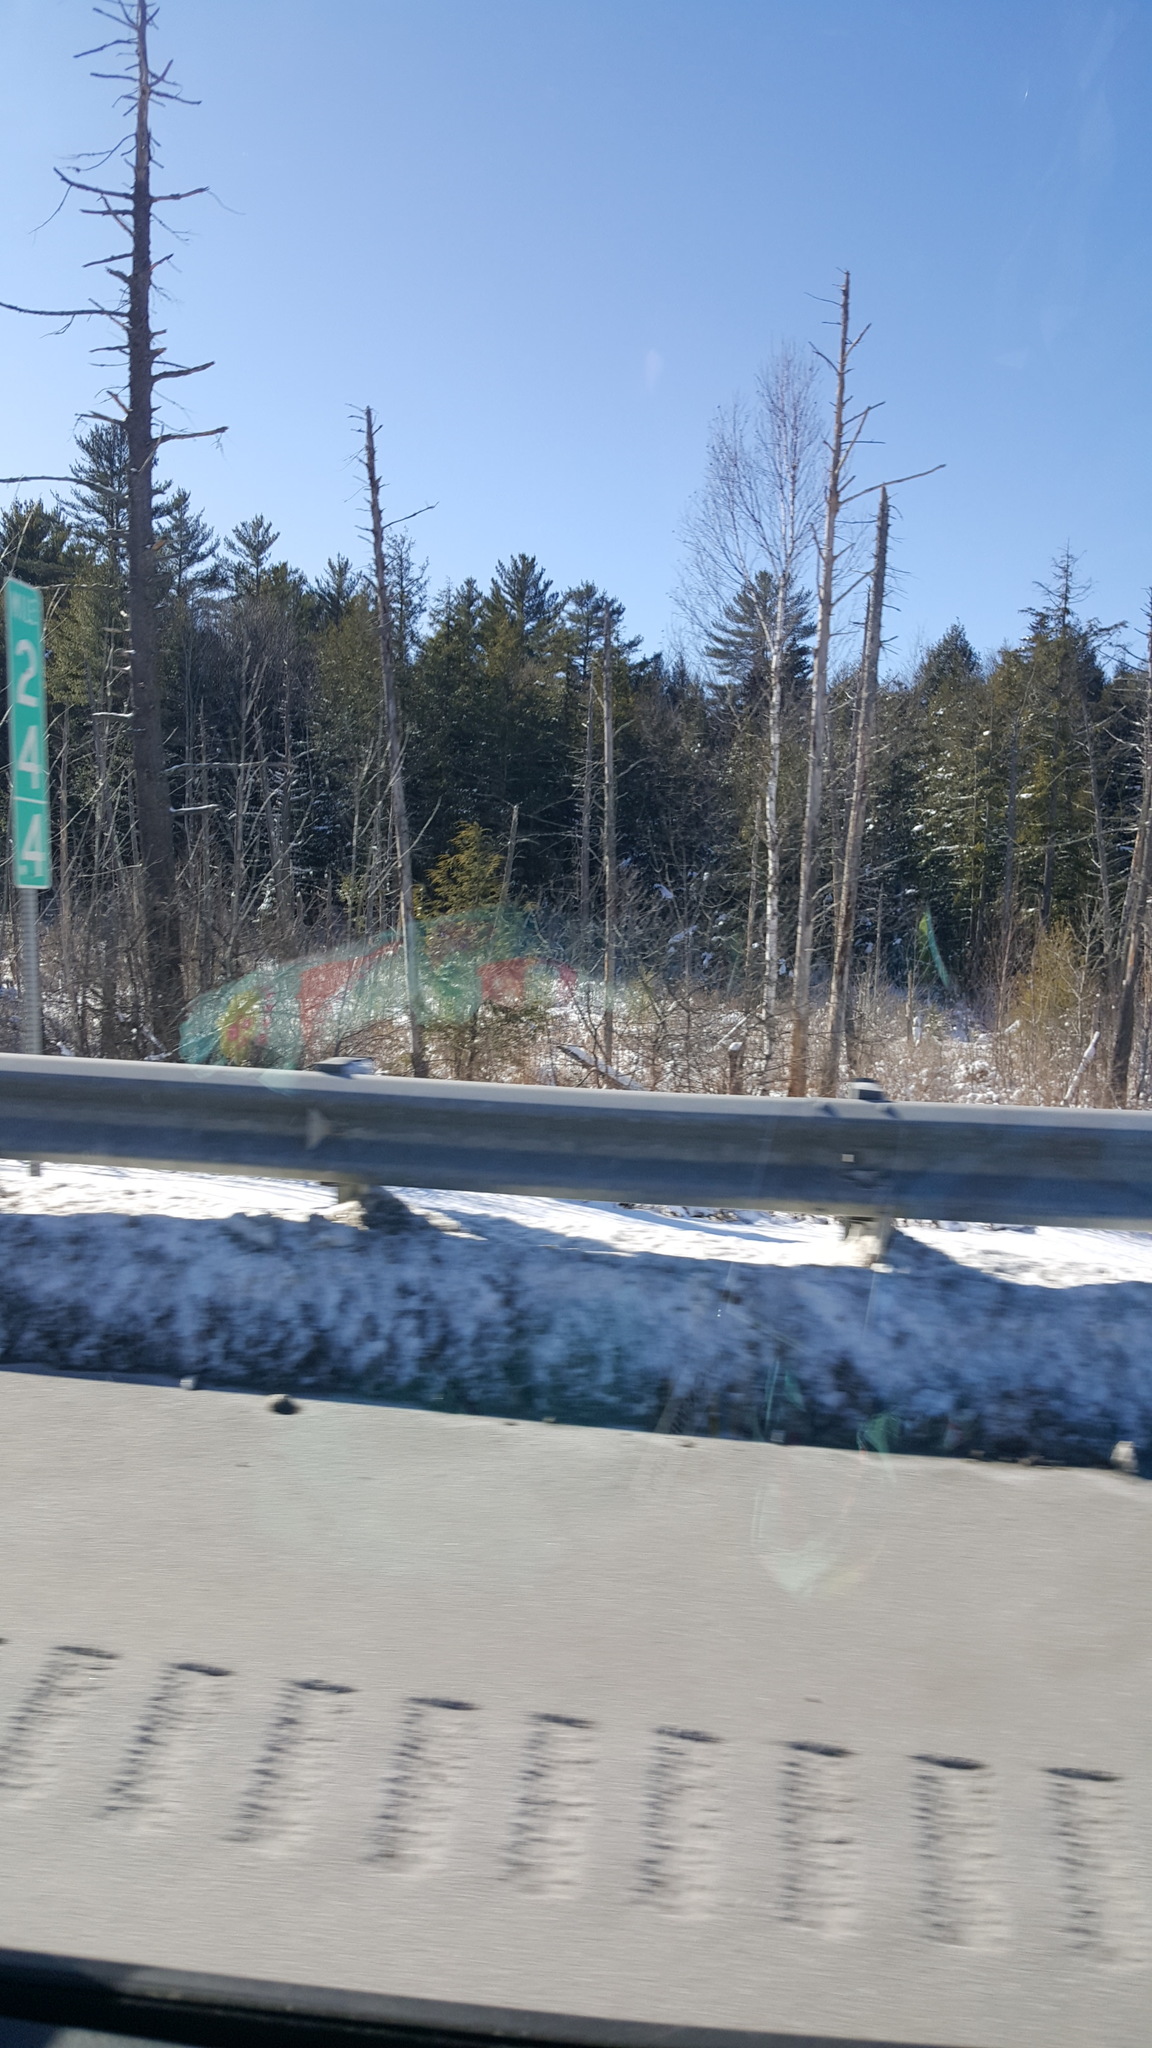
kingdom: Plantae
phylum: Tracheophyta
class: Pinopsida
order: Pinales
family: Pinaceae
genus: Tsuga
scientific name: Tsuga canadensis
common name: Eastern hemlock
